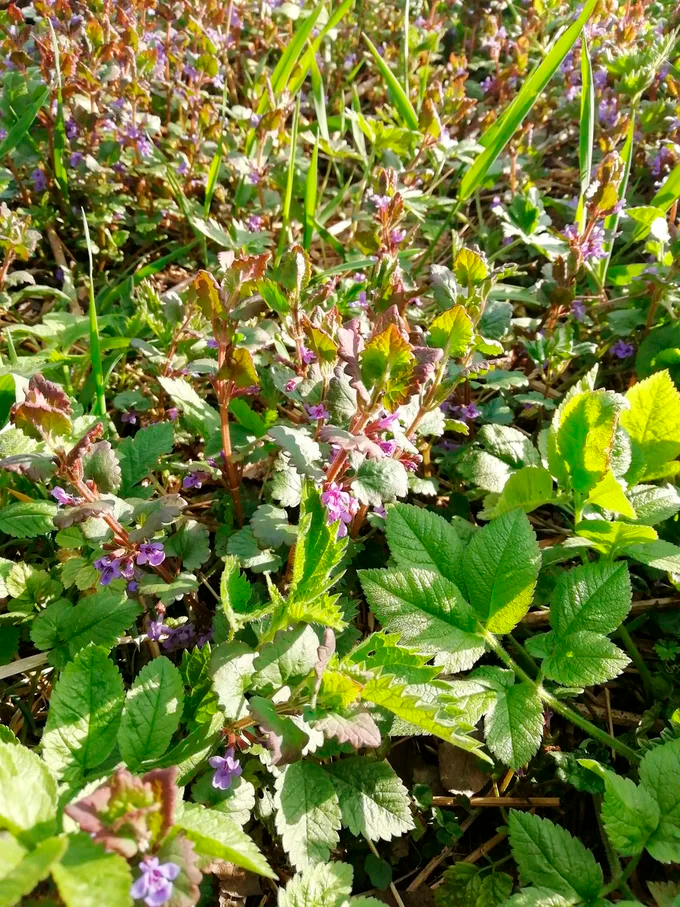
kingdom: Plantae
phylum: Tracheophyta
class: Magnoliopsida
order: Lamiales
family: Lamiaceae
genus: Glechoma
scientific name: Glechoma hederacea
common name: Ground ivy
